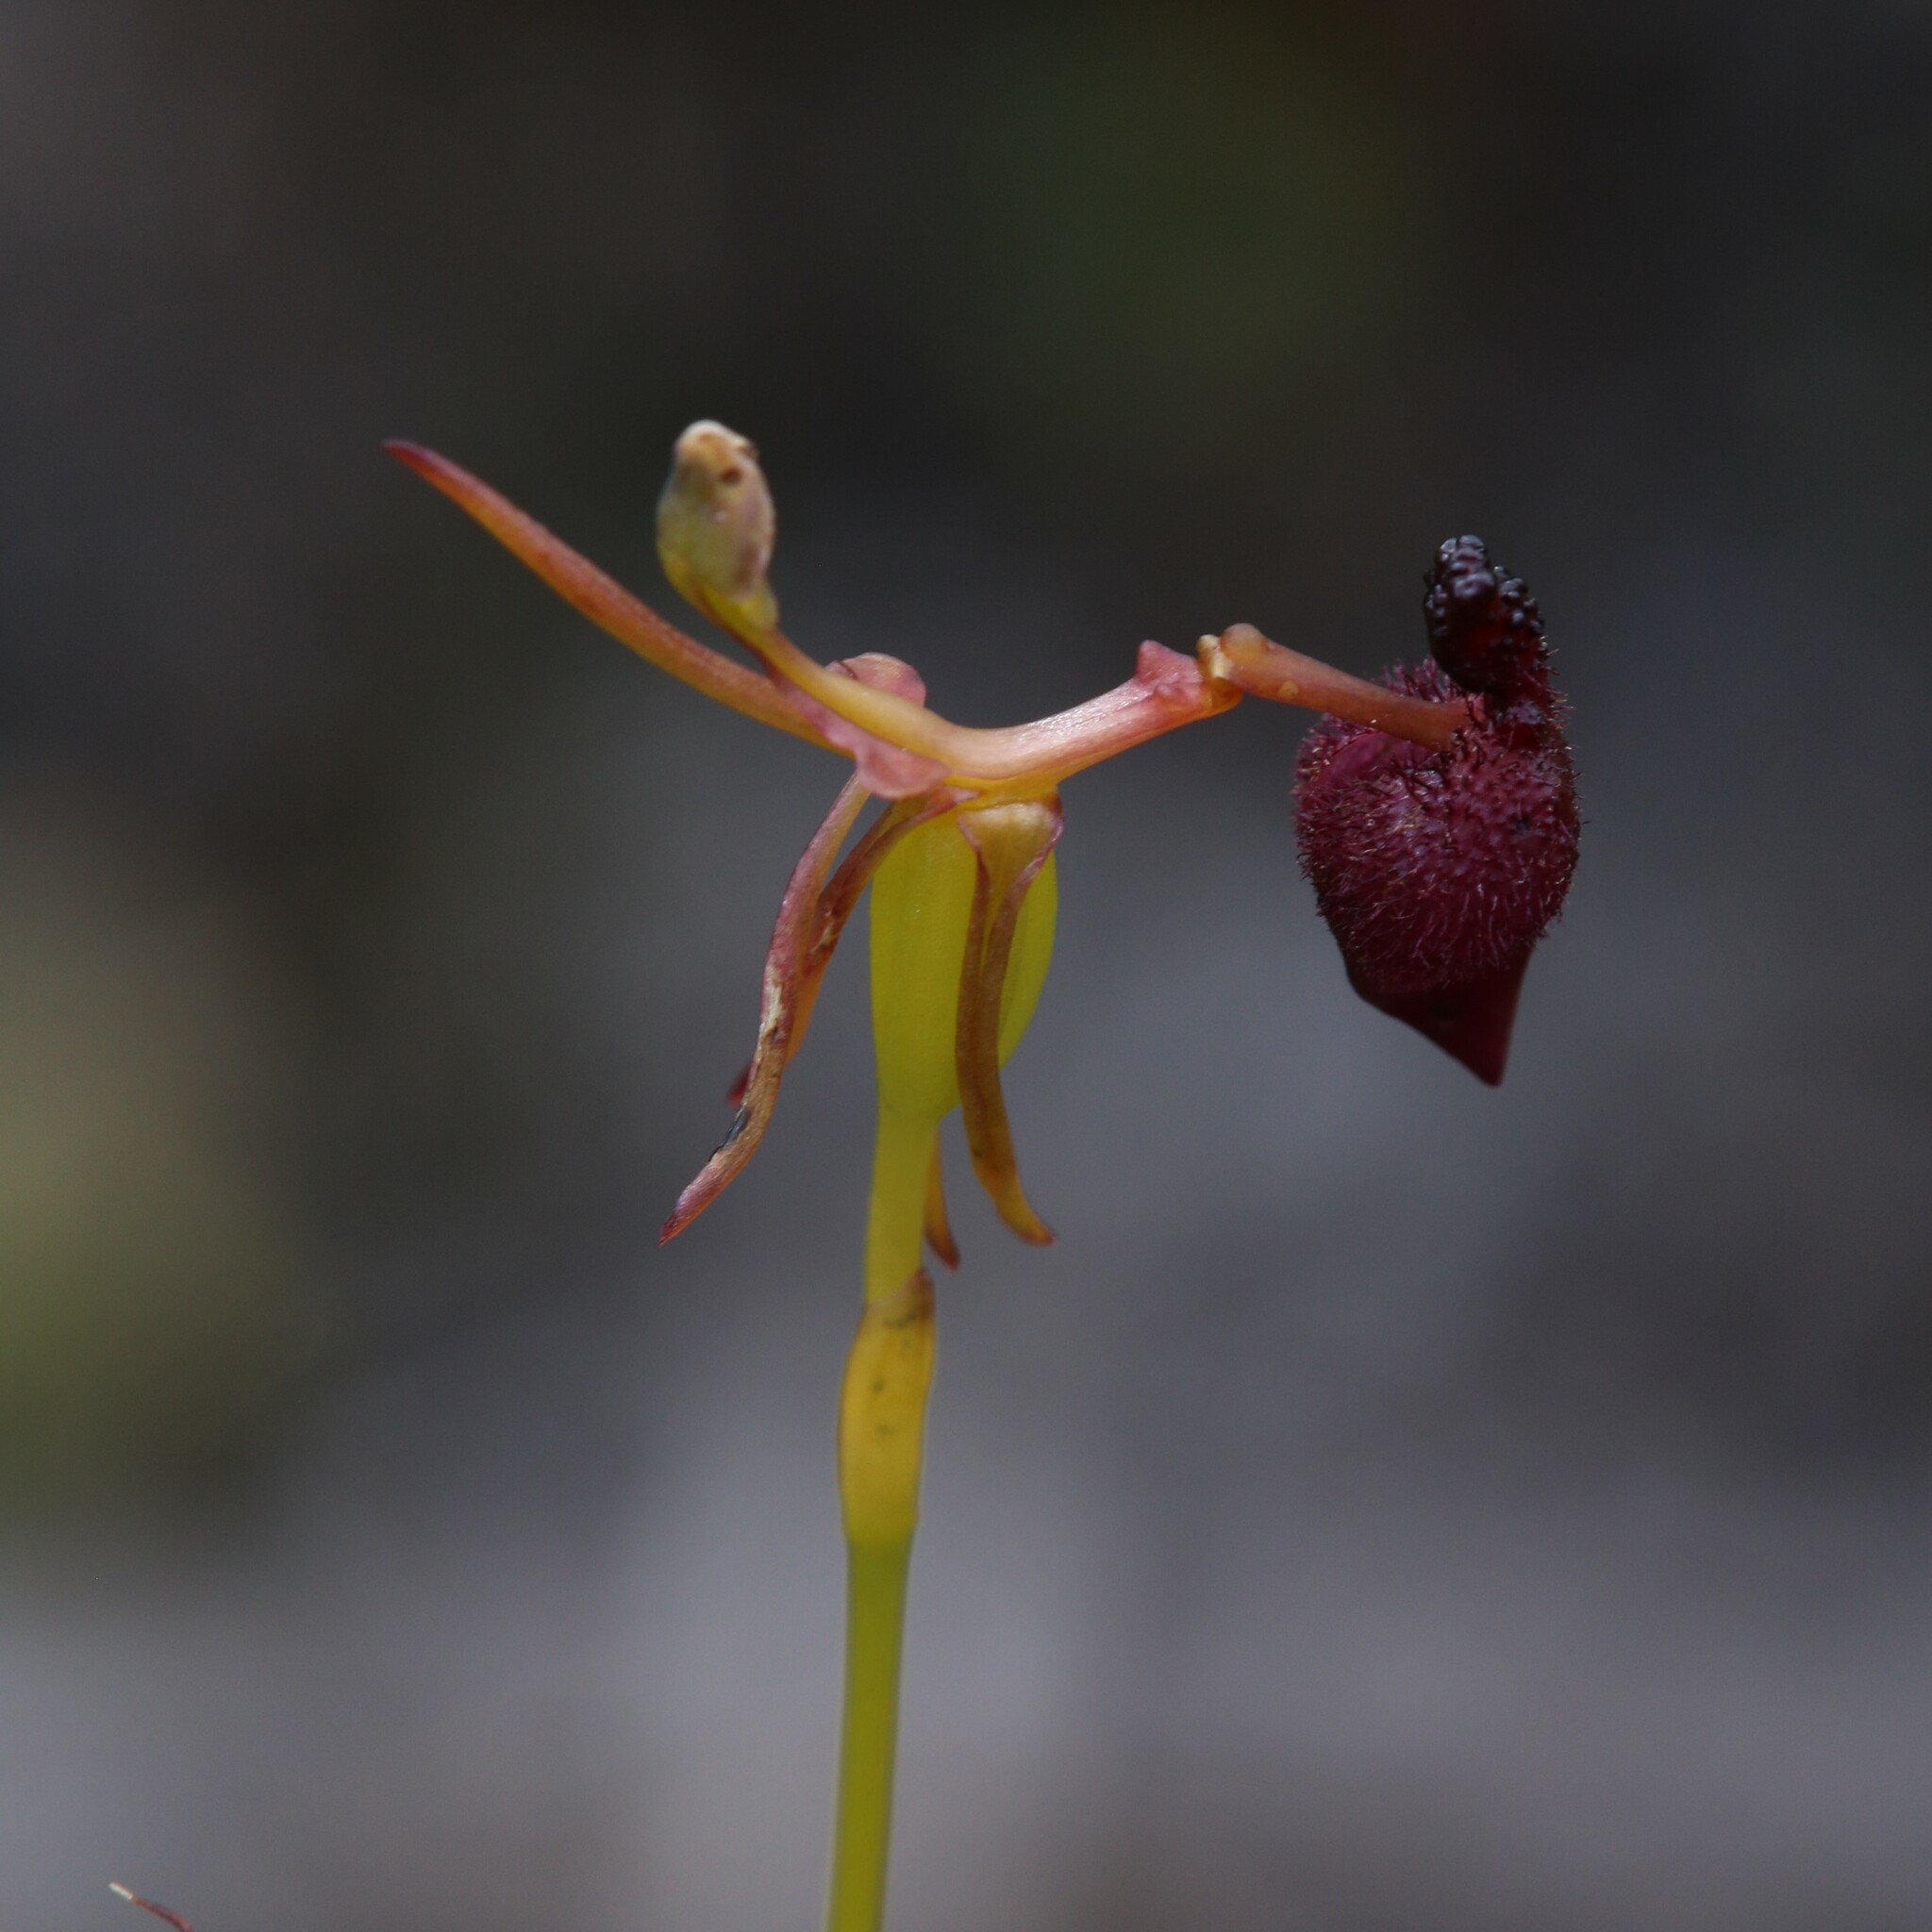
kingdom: Plantae
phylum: Tracheophyta
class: Liliopsida
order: Asparagales
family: Orchidaceae
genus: Drakaea
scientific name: Drakaea glyptodon
